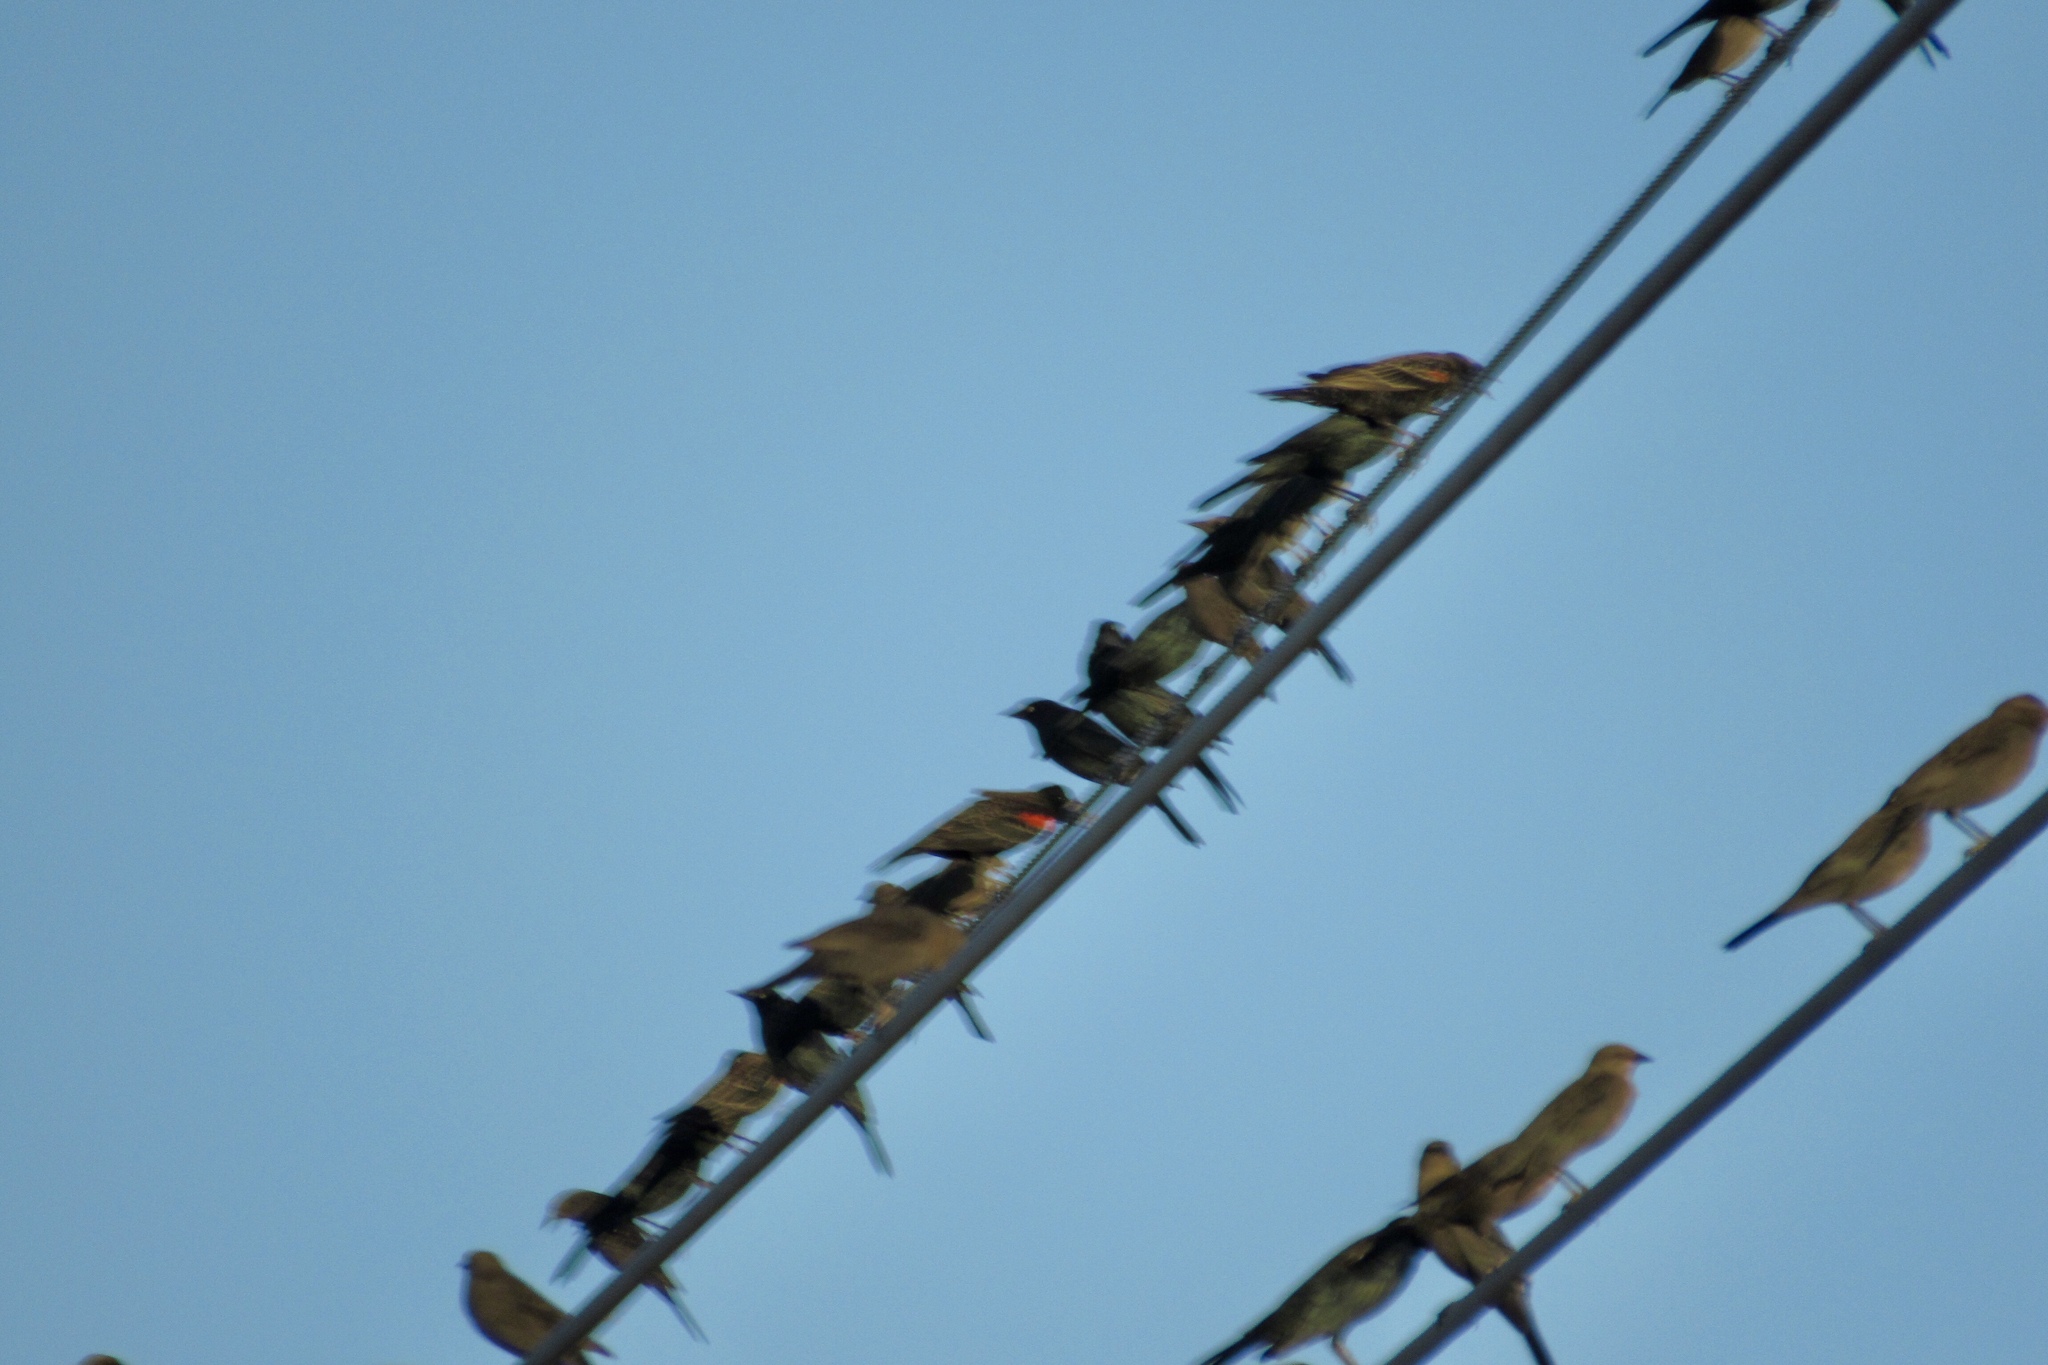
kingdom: Animalia
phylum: Chordata
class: Aves
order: Passeriformes
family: Icteridae
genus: Agelaius
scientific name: Agelaius phoeniceus
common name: Red-winged blackbird
